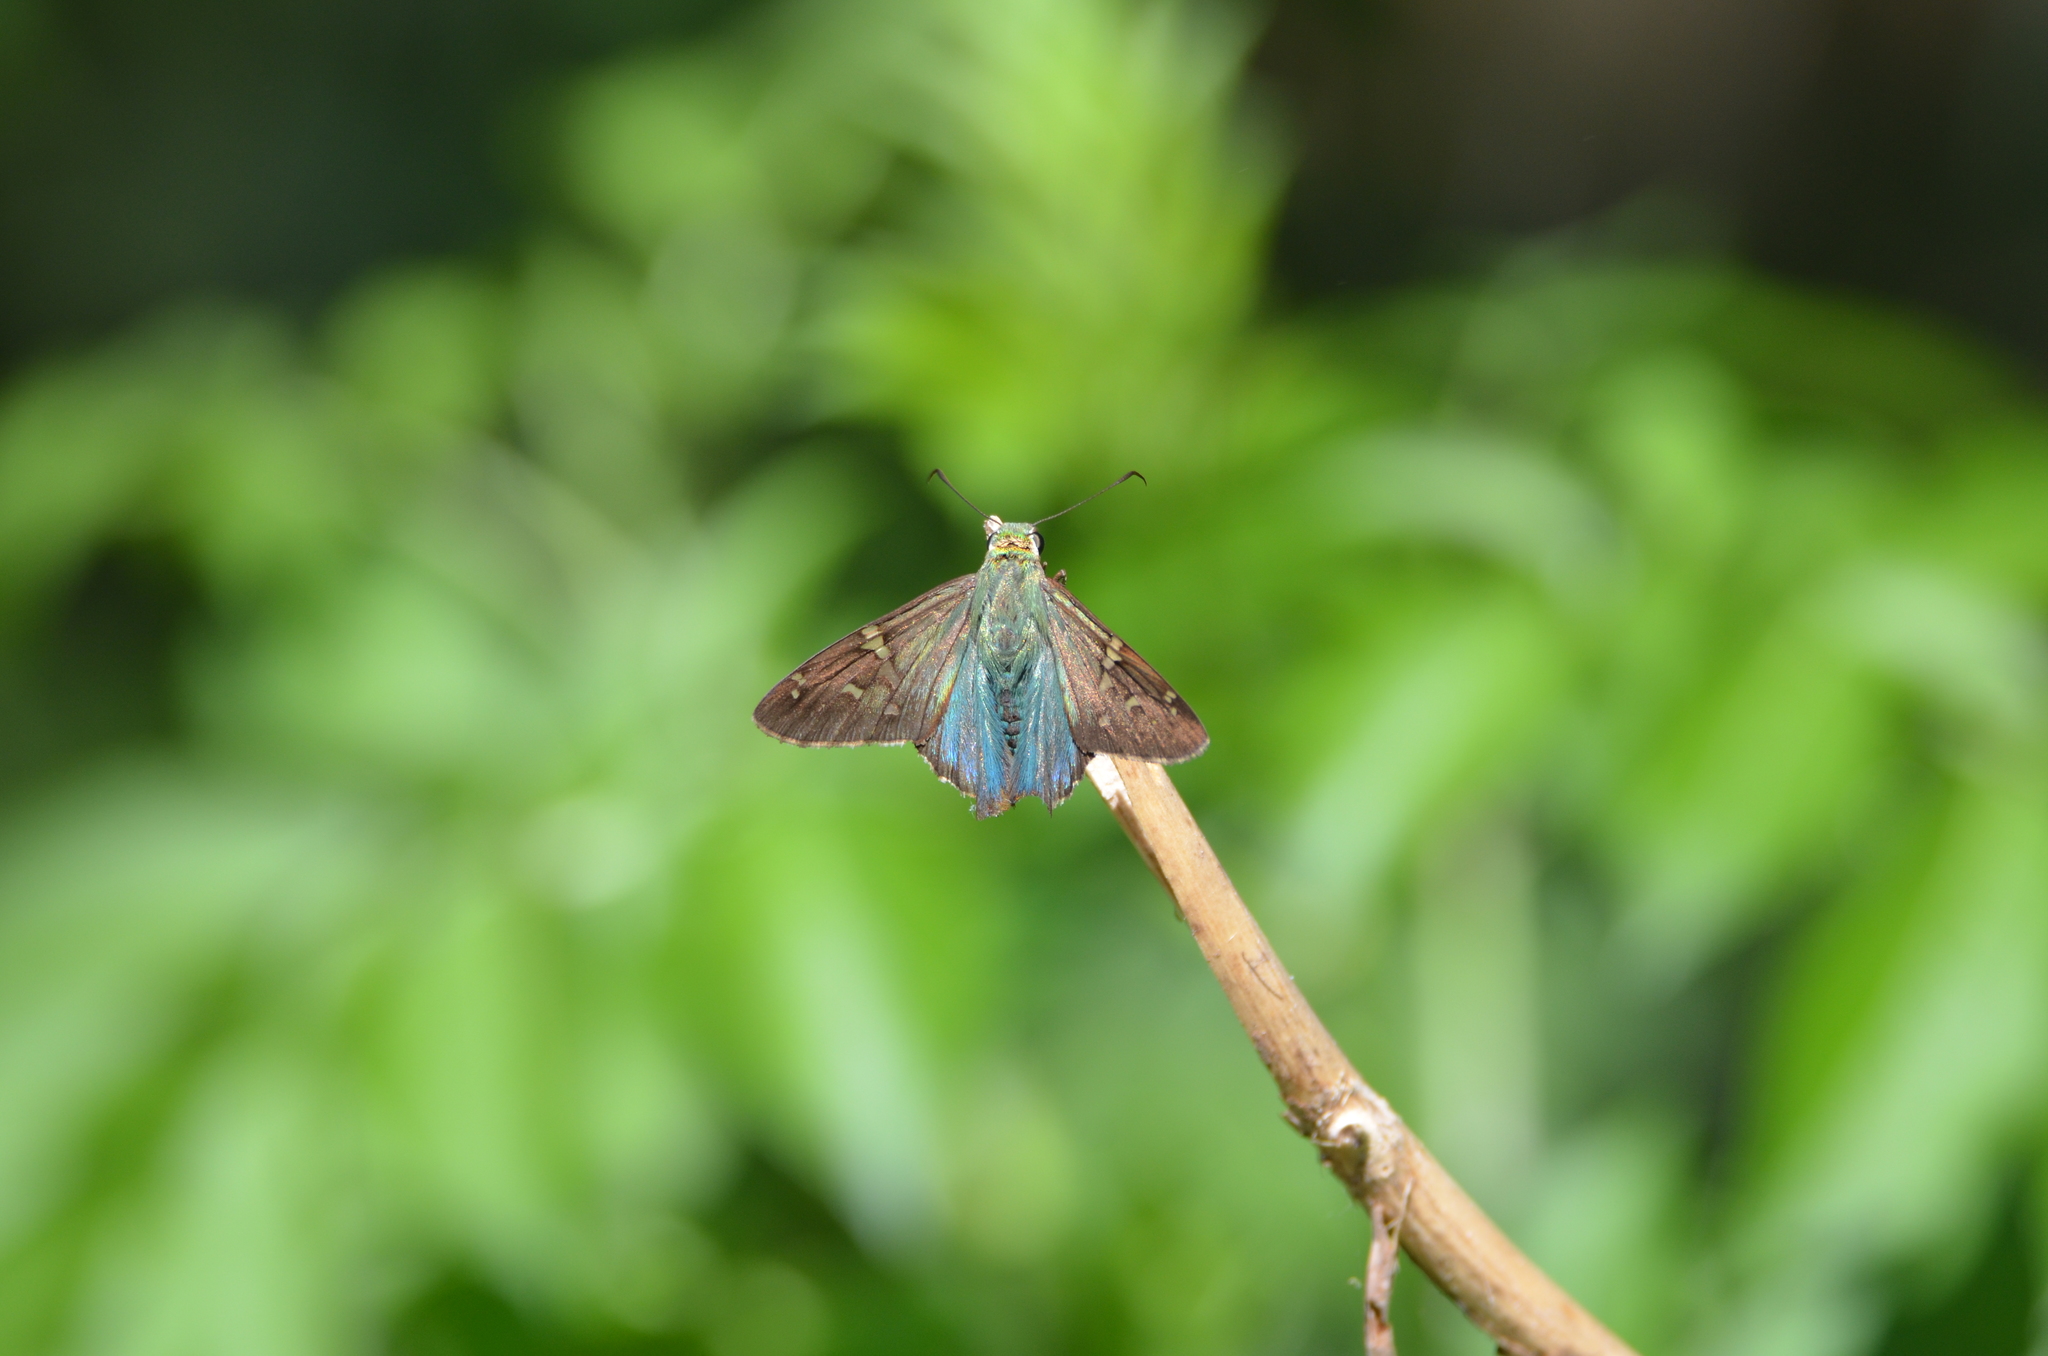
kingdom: Animalia
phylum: Arthropoda
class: Insecta
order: Lepidoptera
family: Hesperiidae
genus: Urbanus
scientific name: Urbanus proteus
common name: Long-tailed skipper
